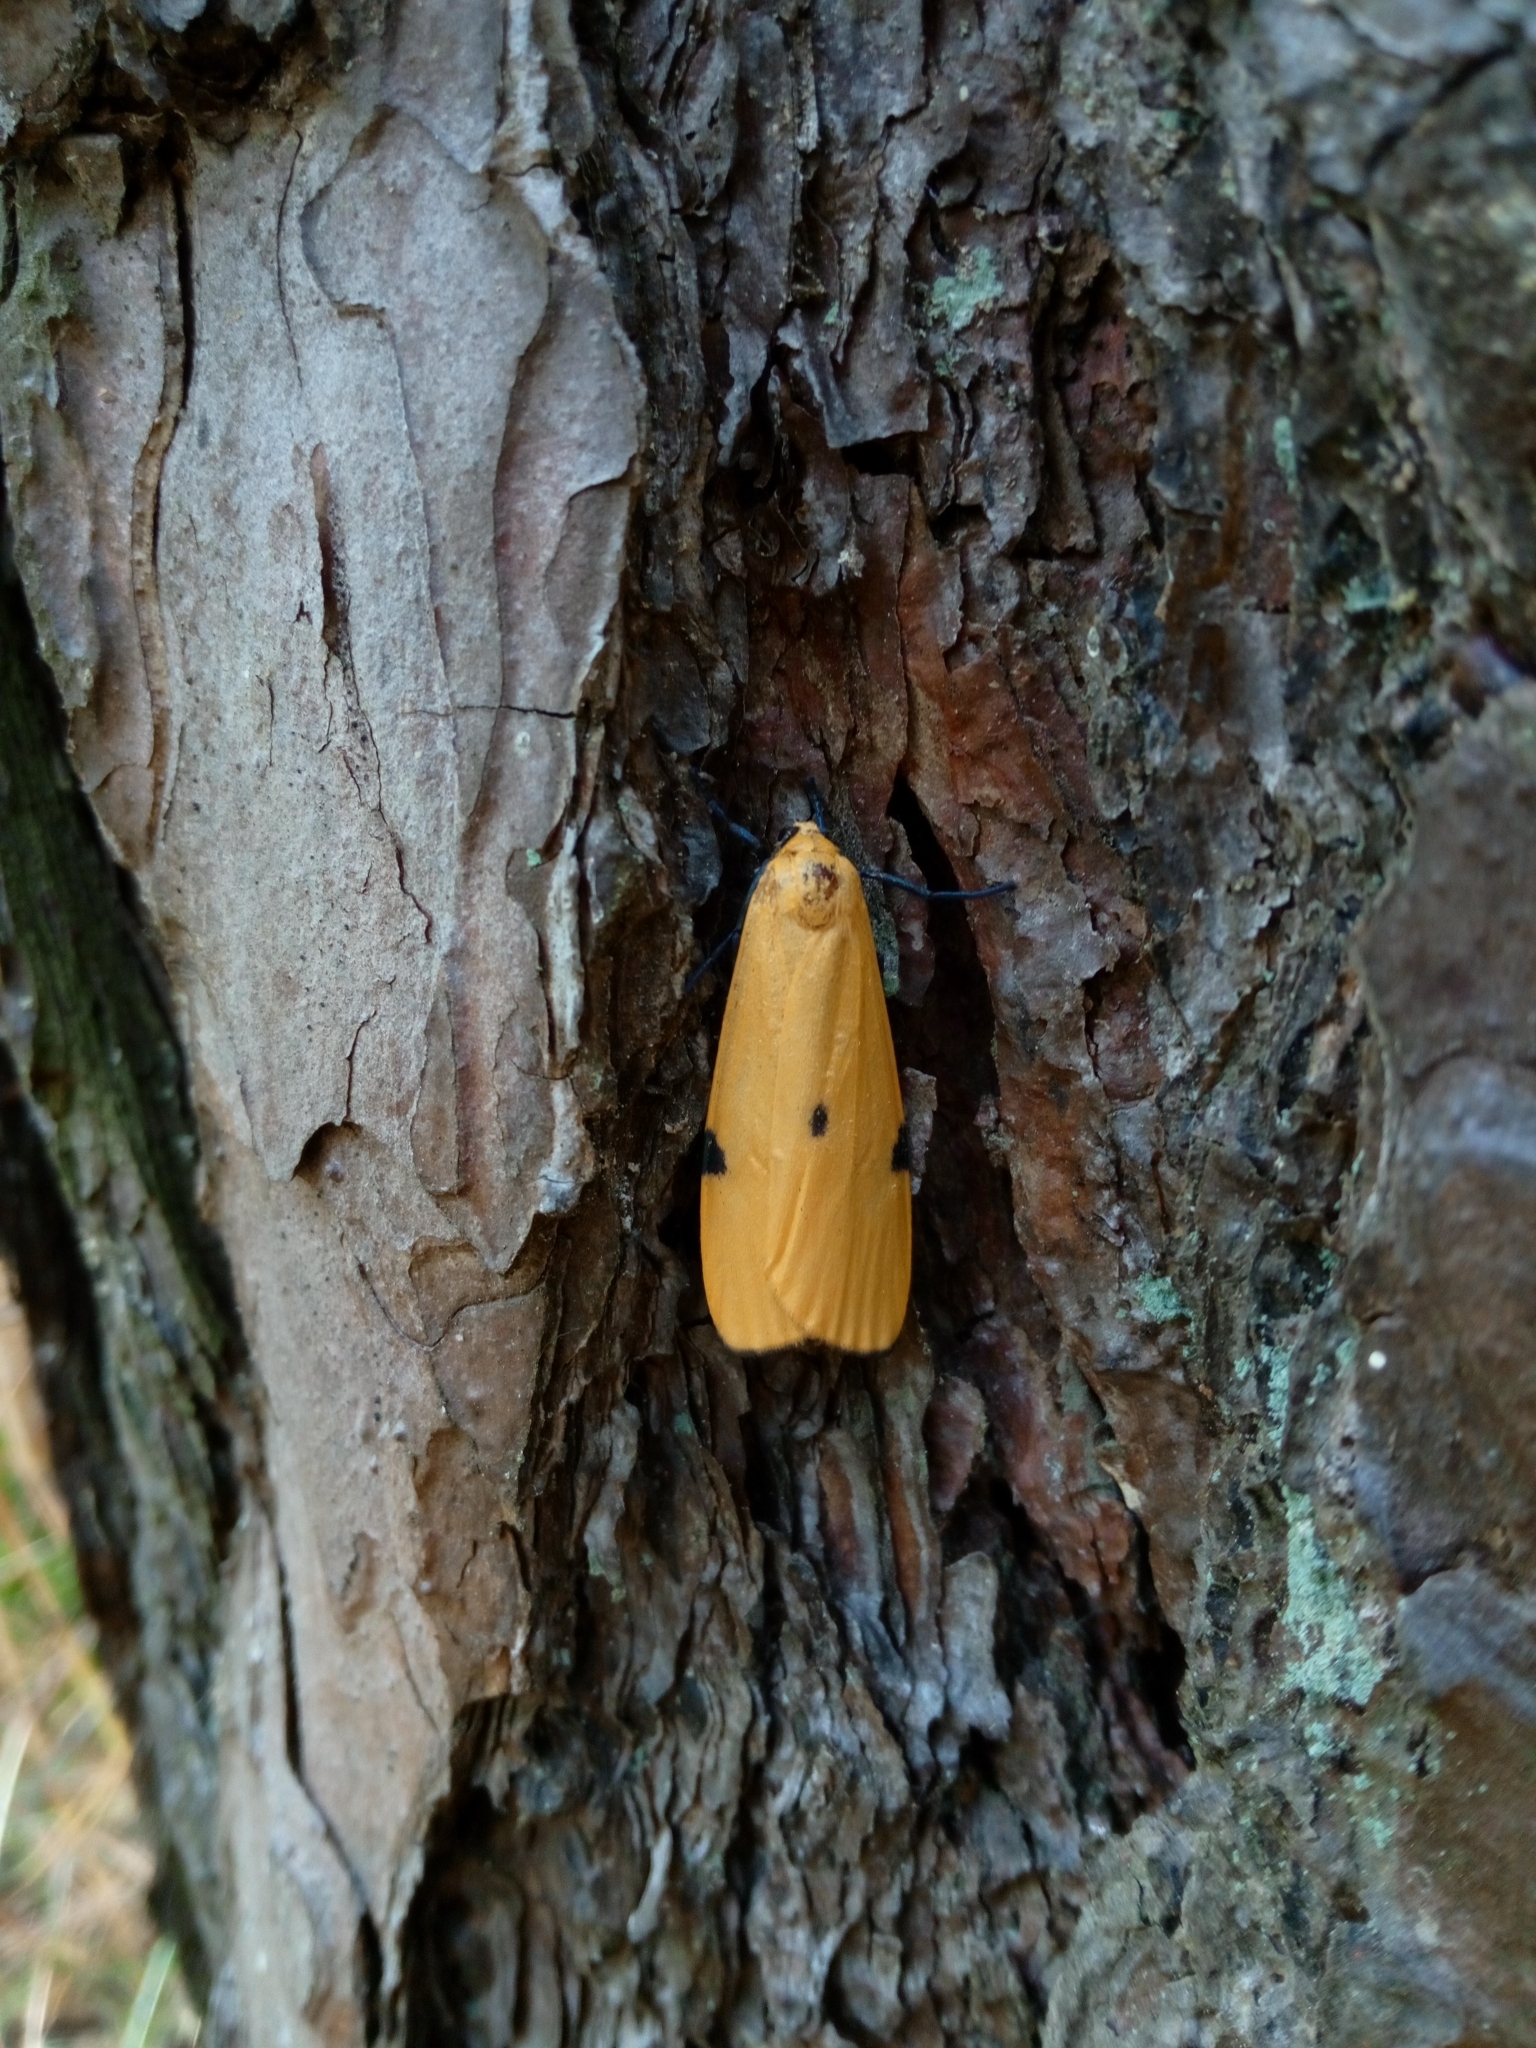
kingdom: Animalia
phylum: Arthropoda
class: Insecta
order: Lepidoptera
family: Erebidae
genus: Lithosia
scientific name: Lithosia quadra
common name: Four-spotted footman
